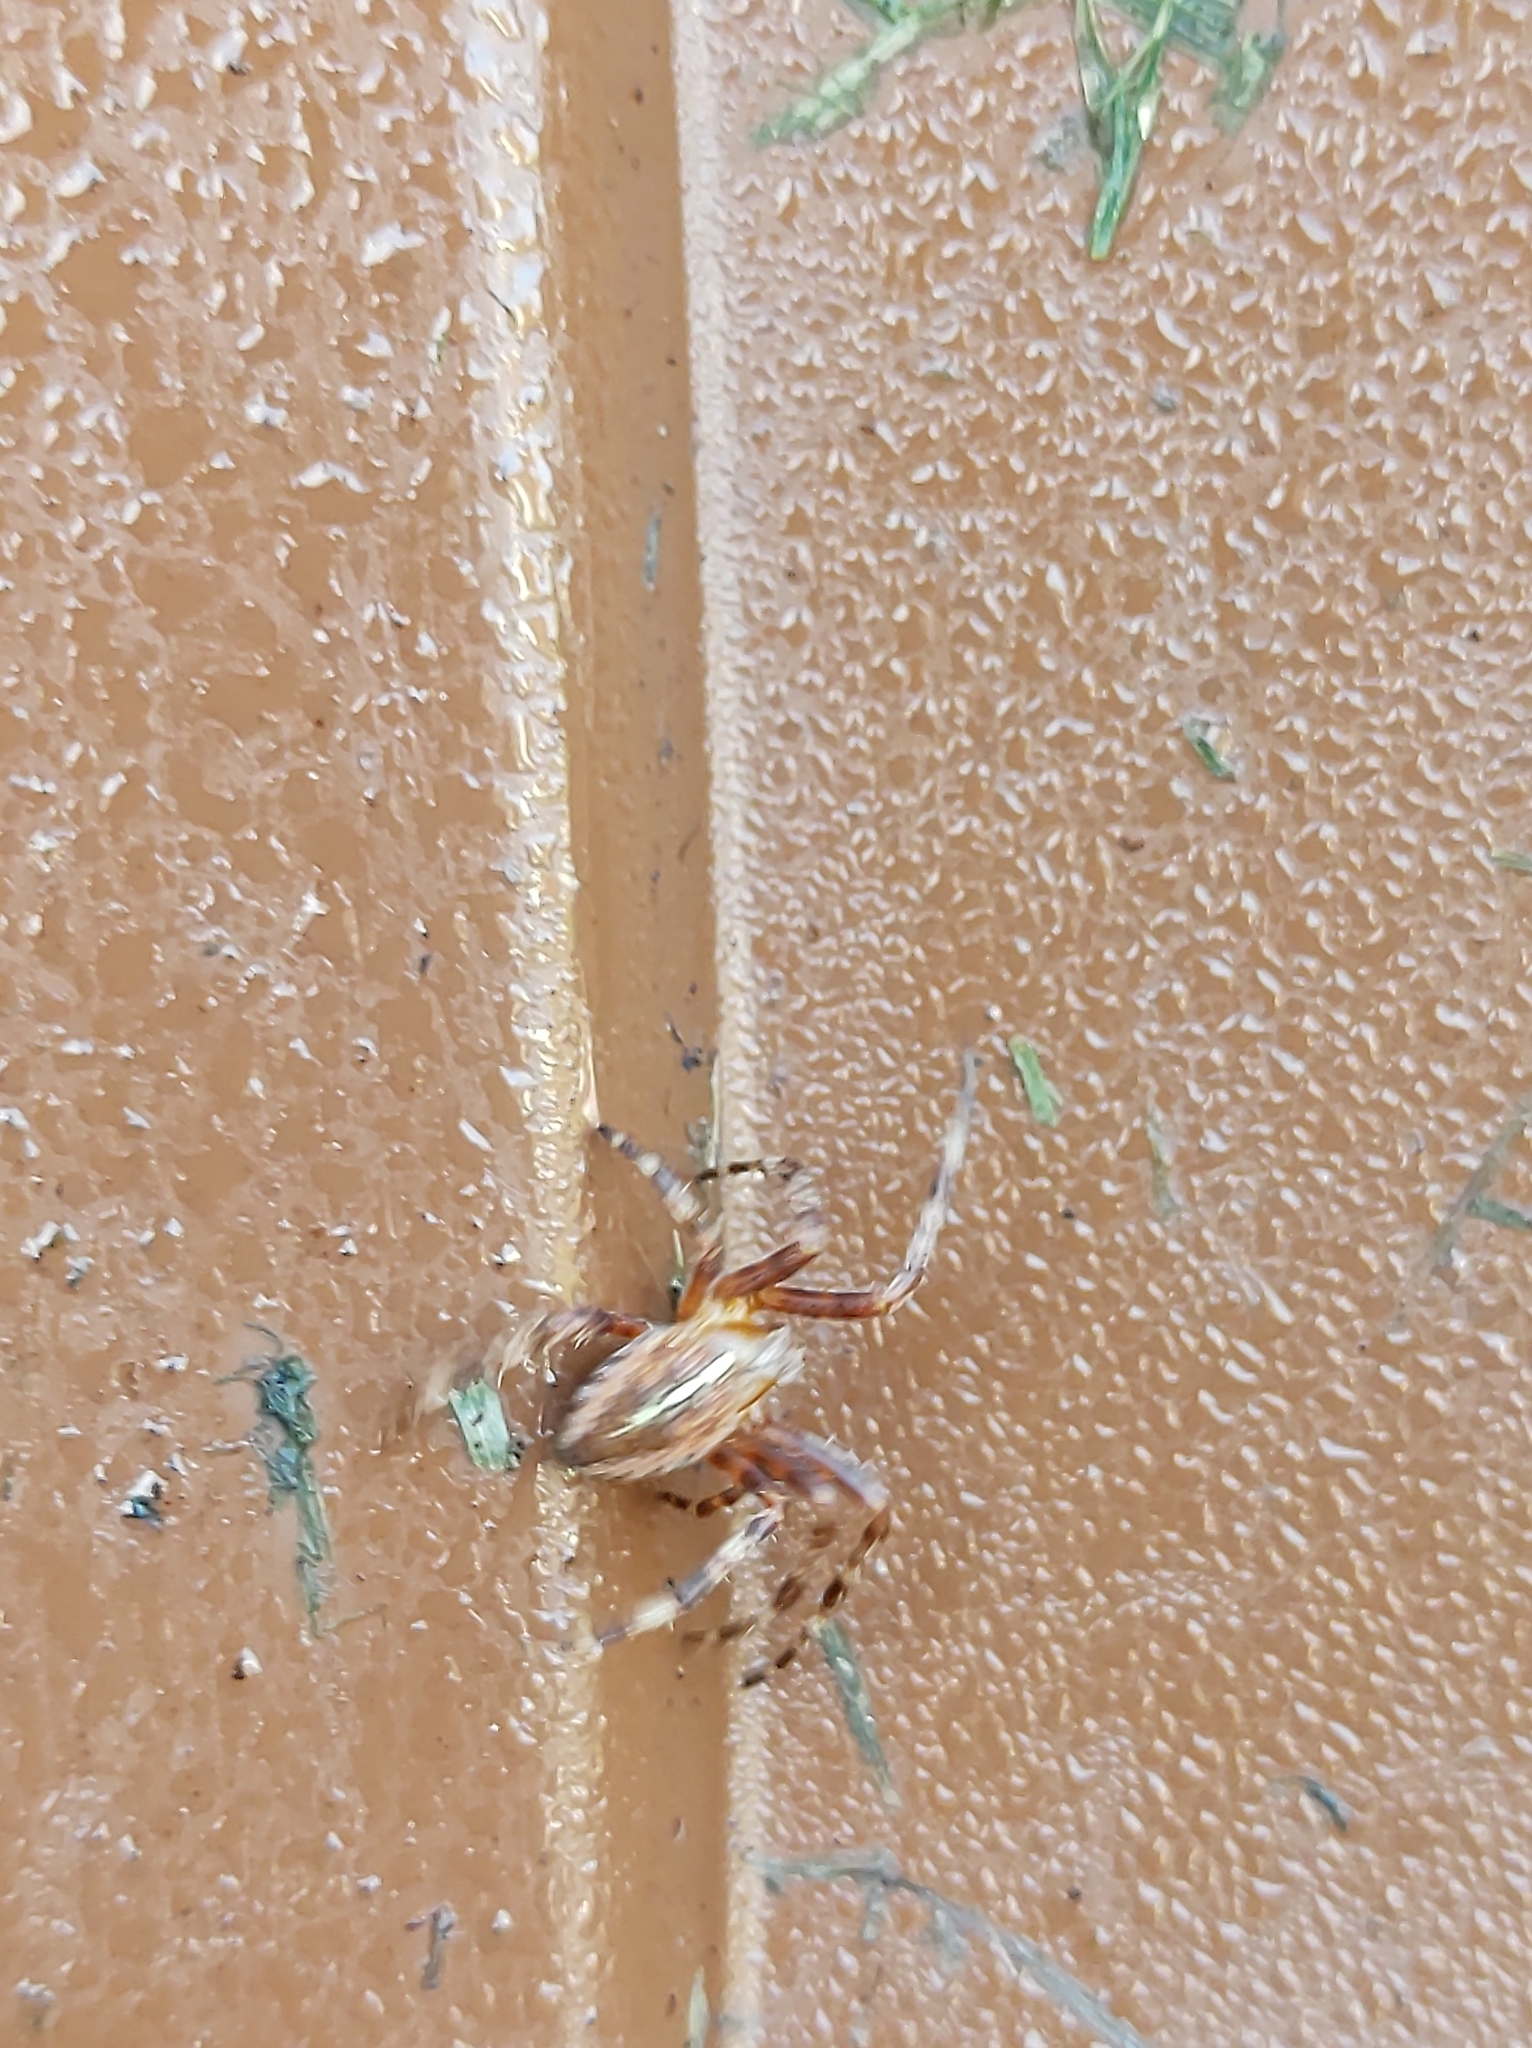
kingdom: Animalia
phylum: Arthropoda
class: Arachnida
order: Araneae
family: Araneidae
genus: Araneus
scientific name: Araneus diadematus
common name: Cross orbweaver
